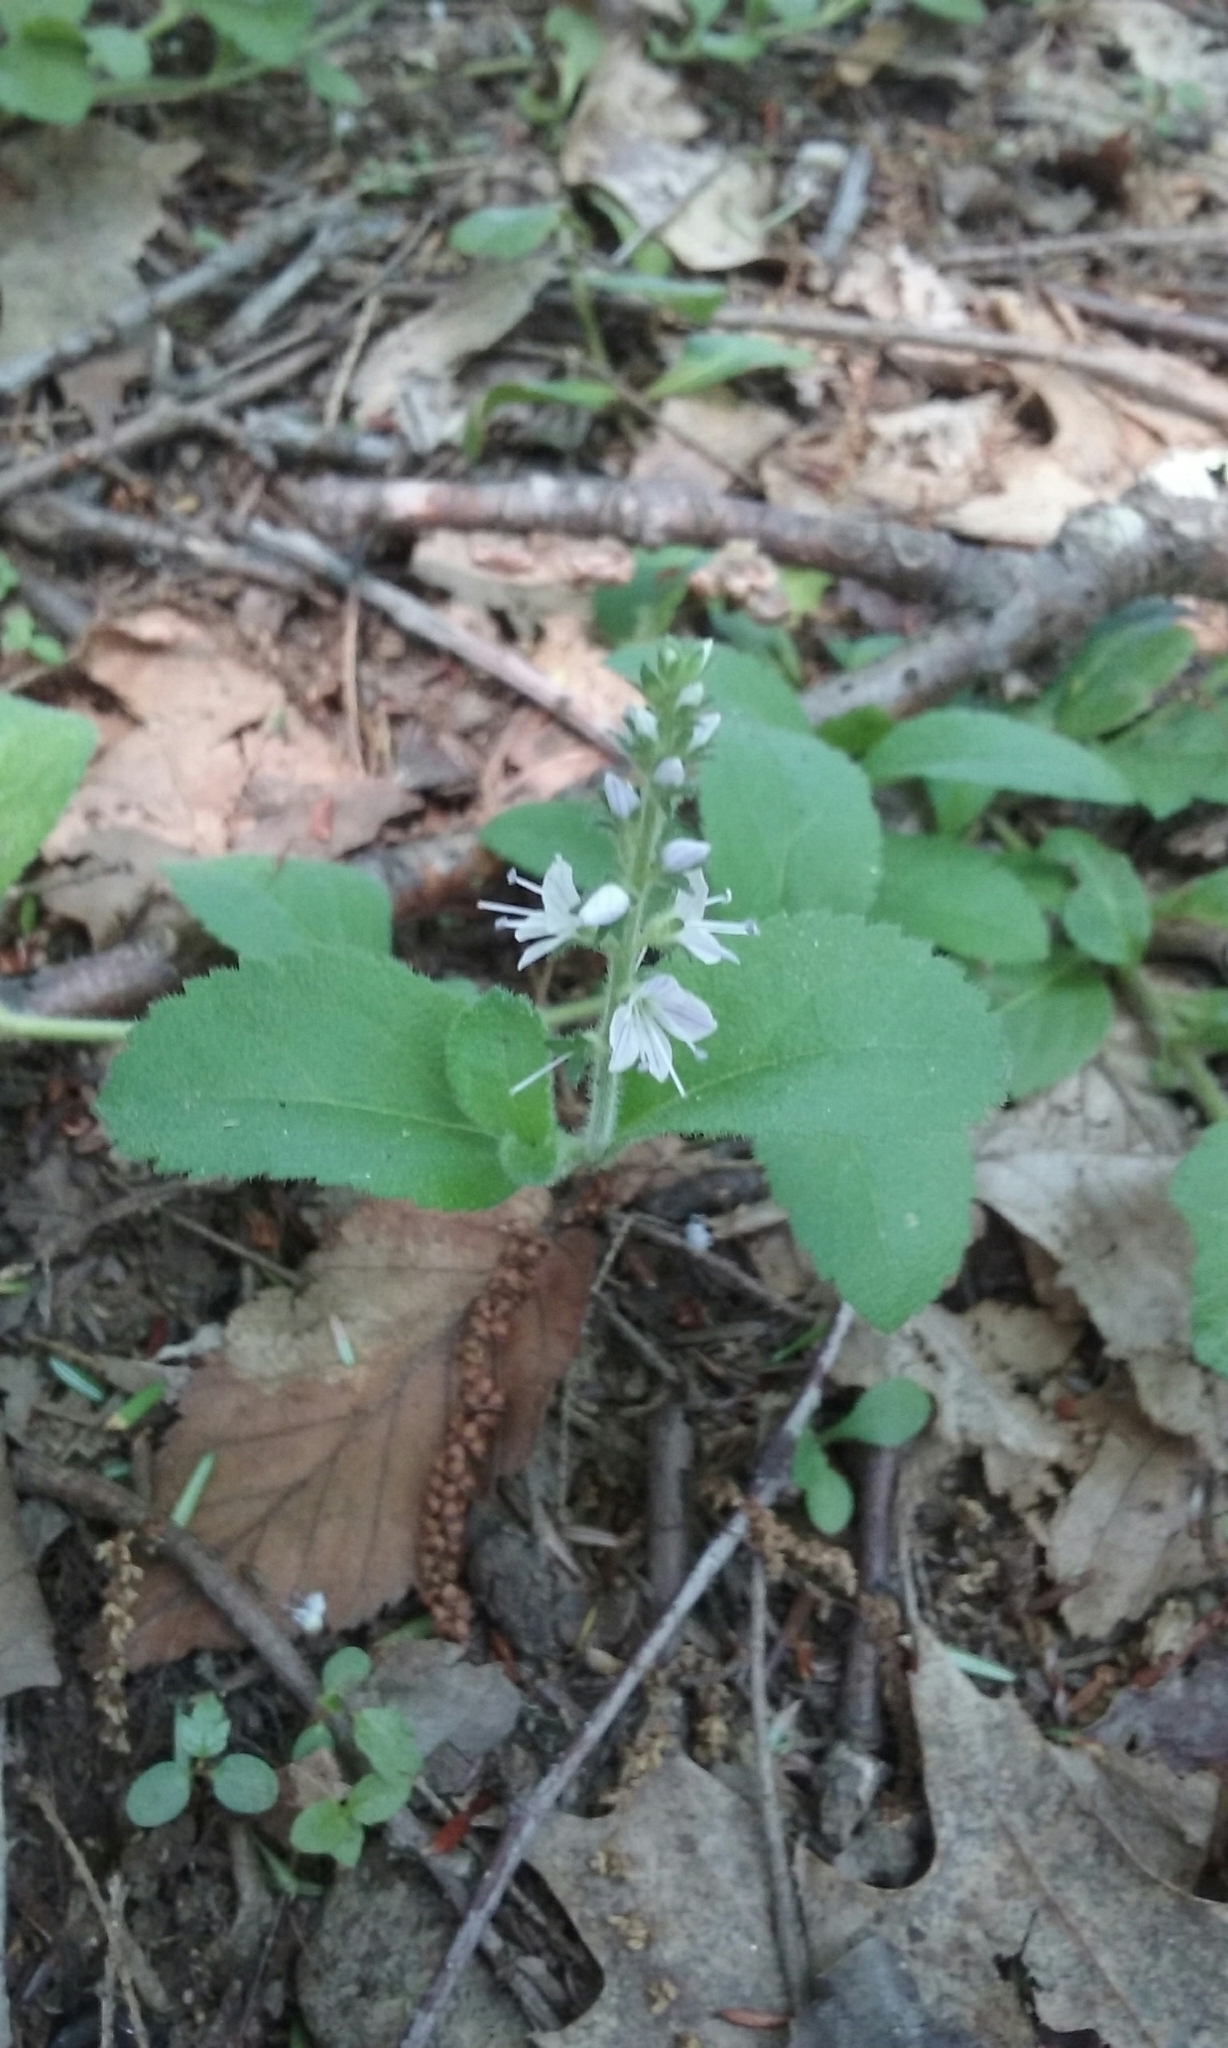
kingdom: Plantae
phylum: Tracheophyta
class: Magnoliopsida
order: Lamiales
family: Plantaginaceae
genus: Veronica
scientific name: Veronica officinalis
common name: Common speedwell
